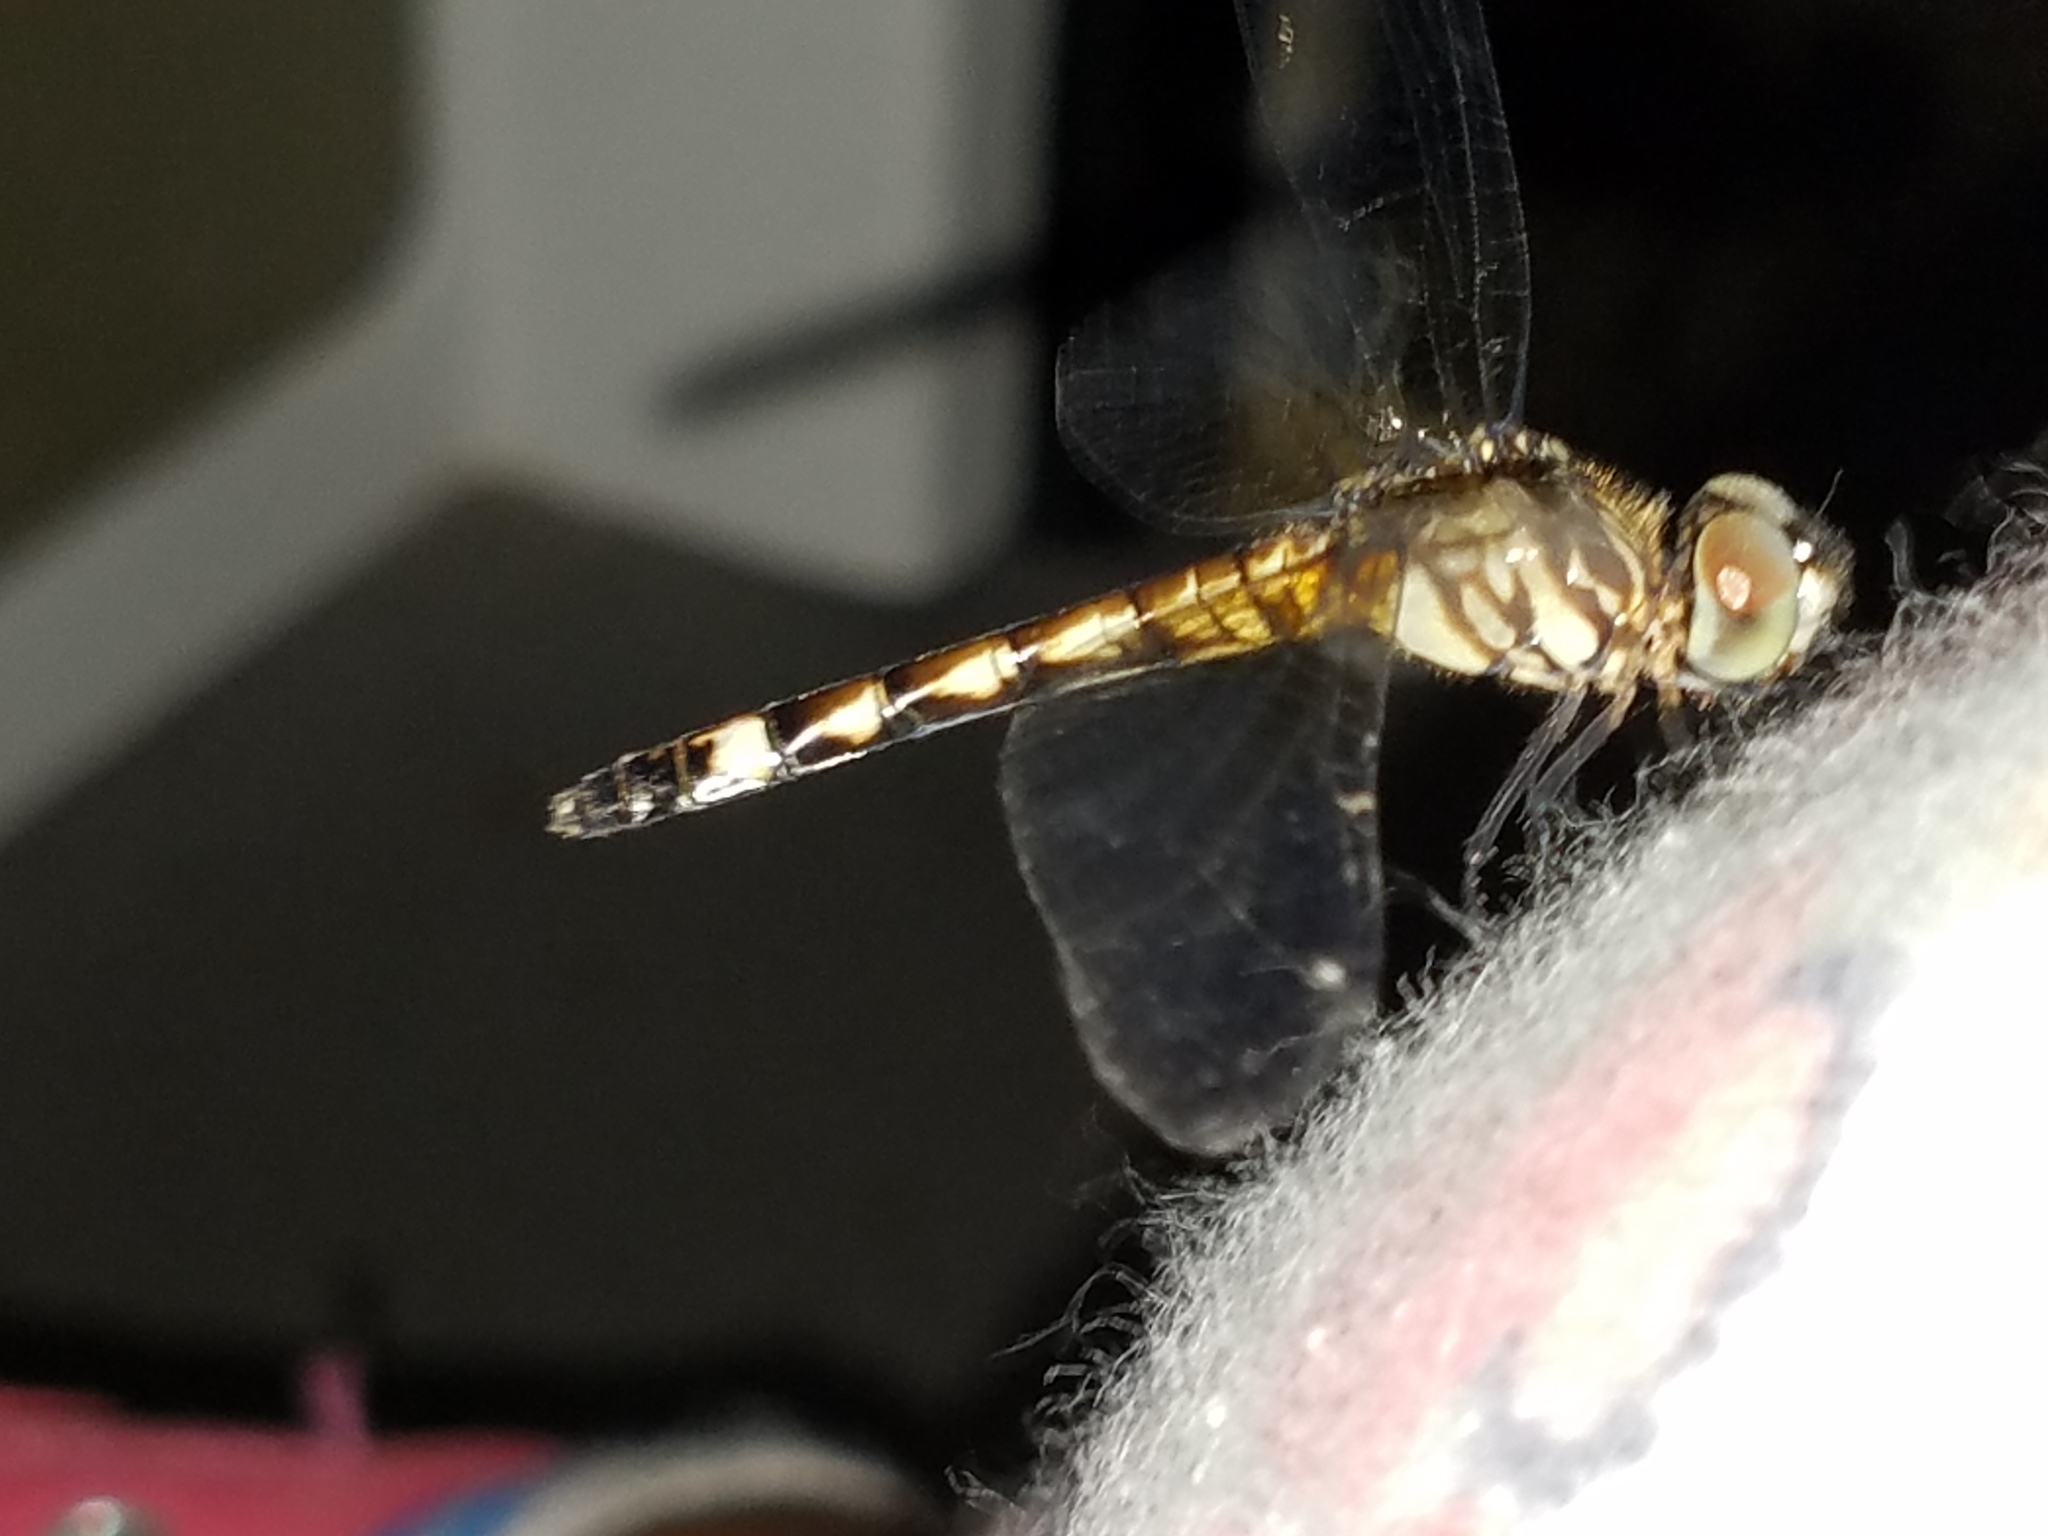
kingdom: Animalia
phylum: Arthropoda
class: Insecta
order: Odonata
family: Libellulidae
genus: Micrathyria
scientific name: Micrathyria hagenii
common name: Thornbush dasher
